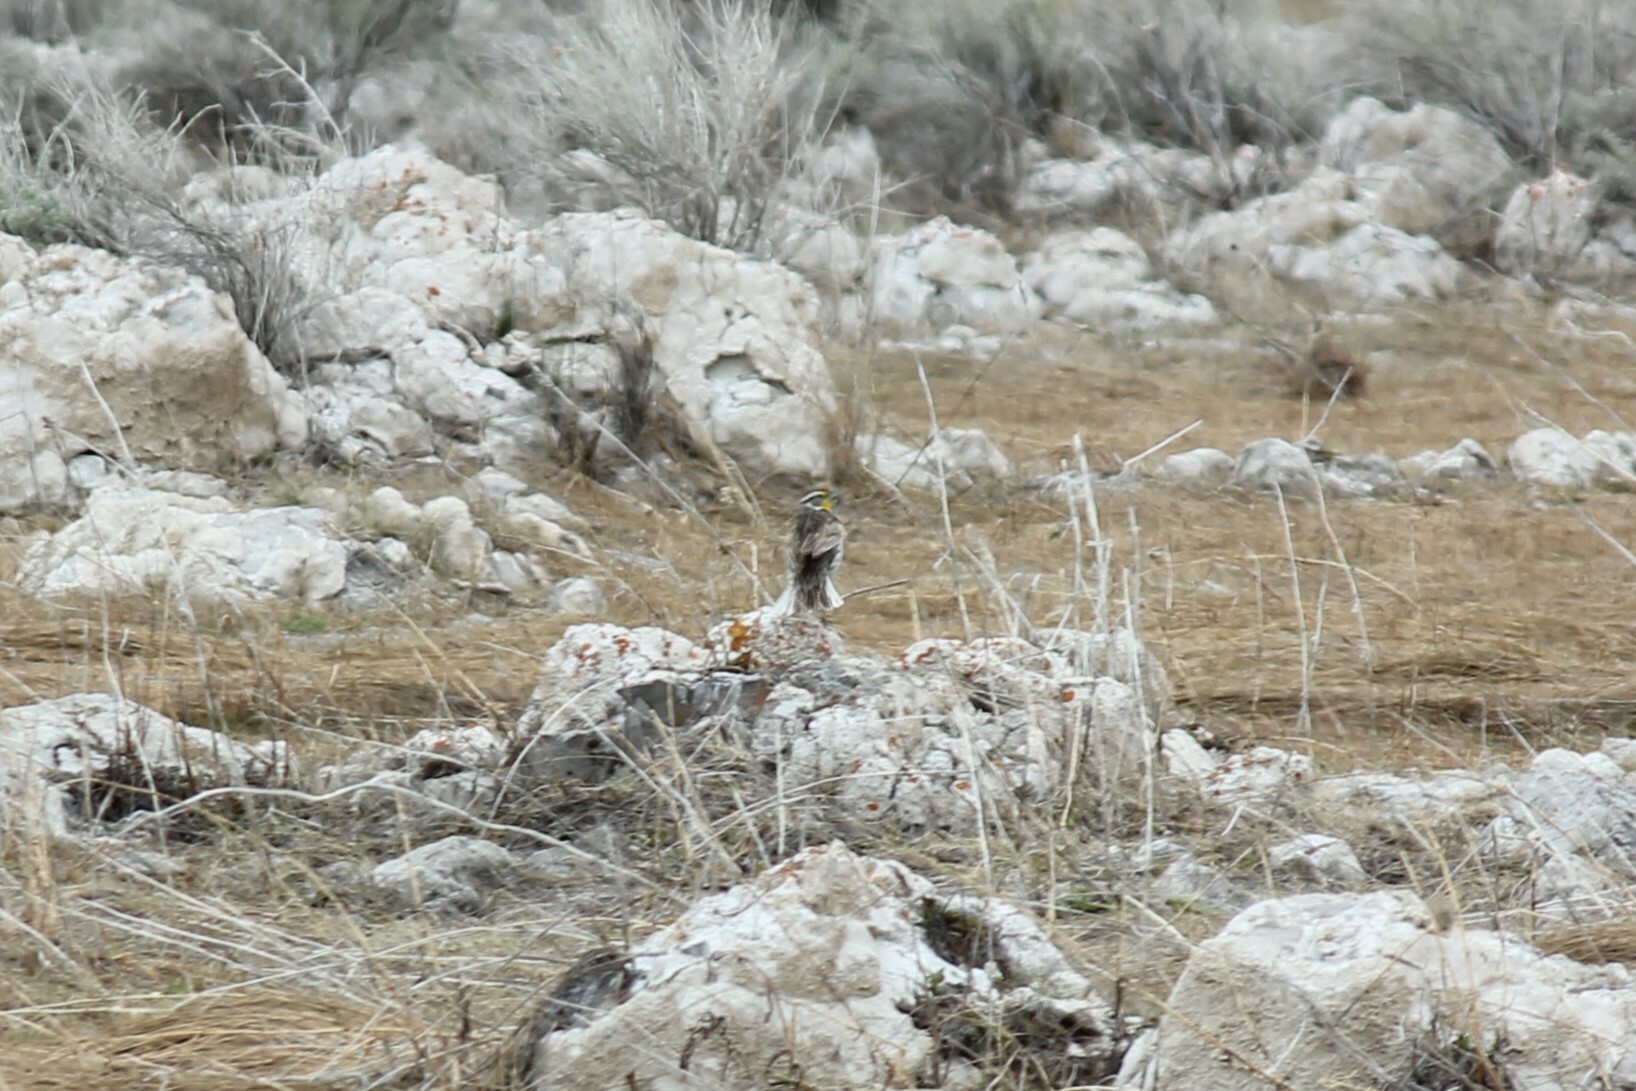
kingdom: Animalia
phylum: Chordata
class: Aves
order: Passeriformes
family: Icteridae
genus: Sturnella
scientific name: Sturnella neglecta
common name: Western meadowlark
